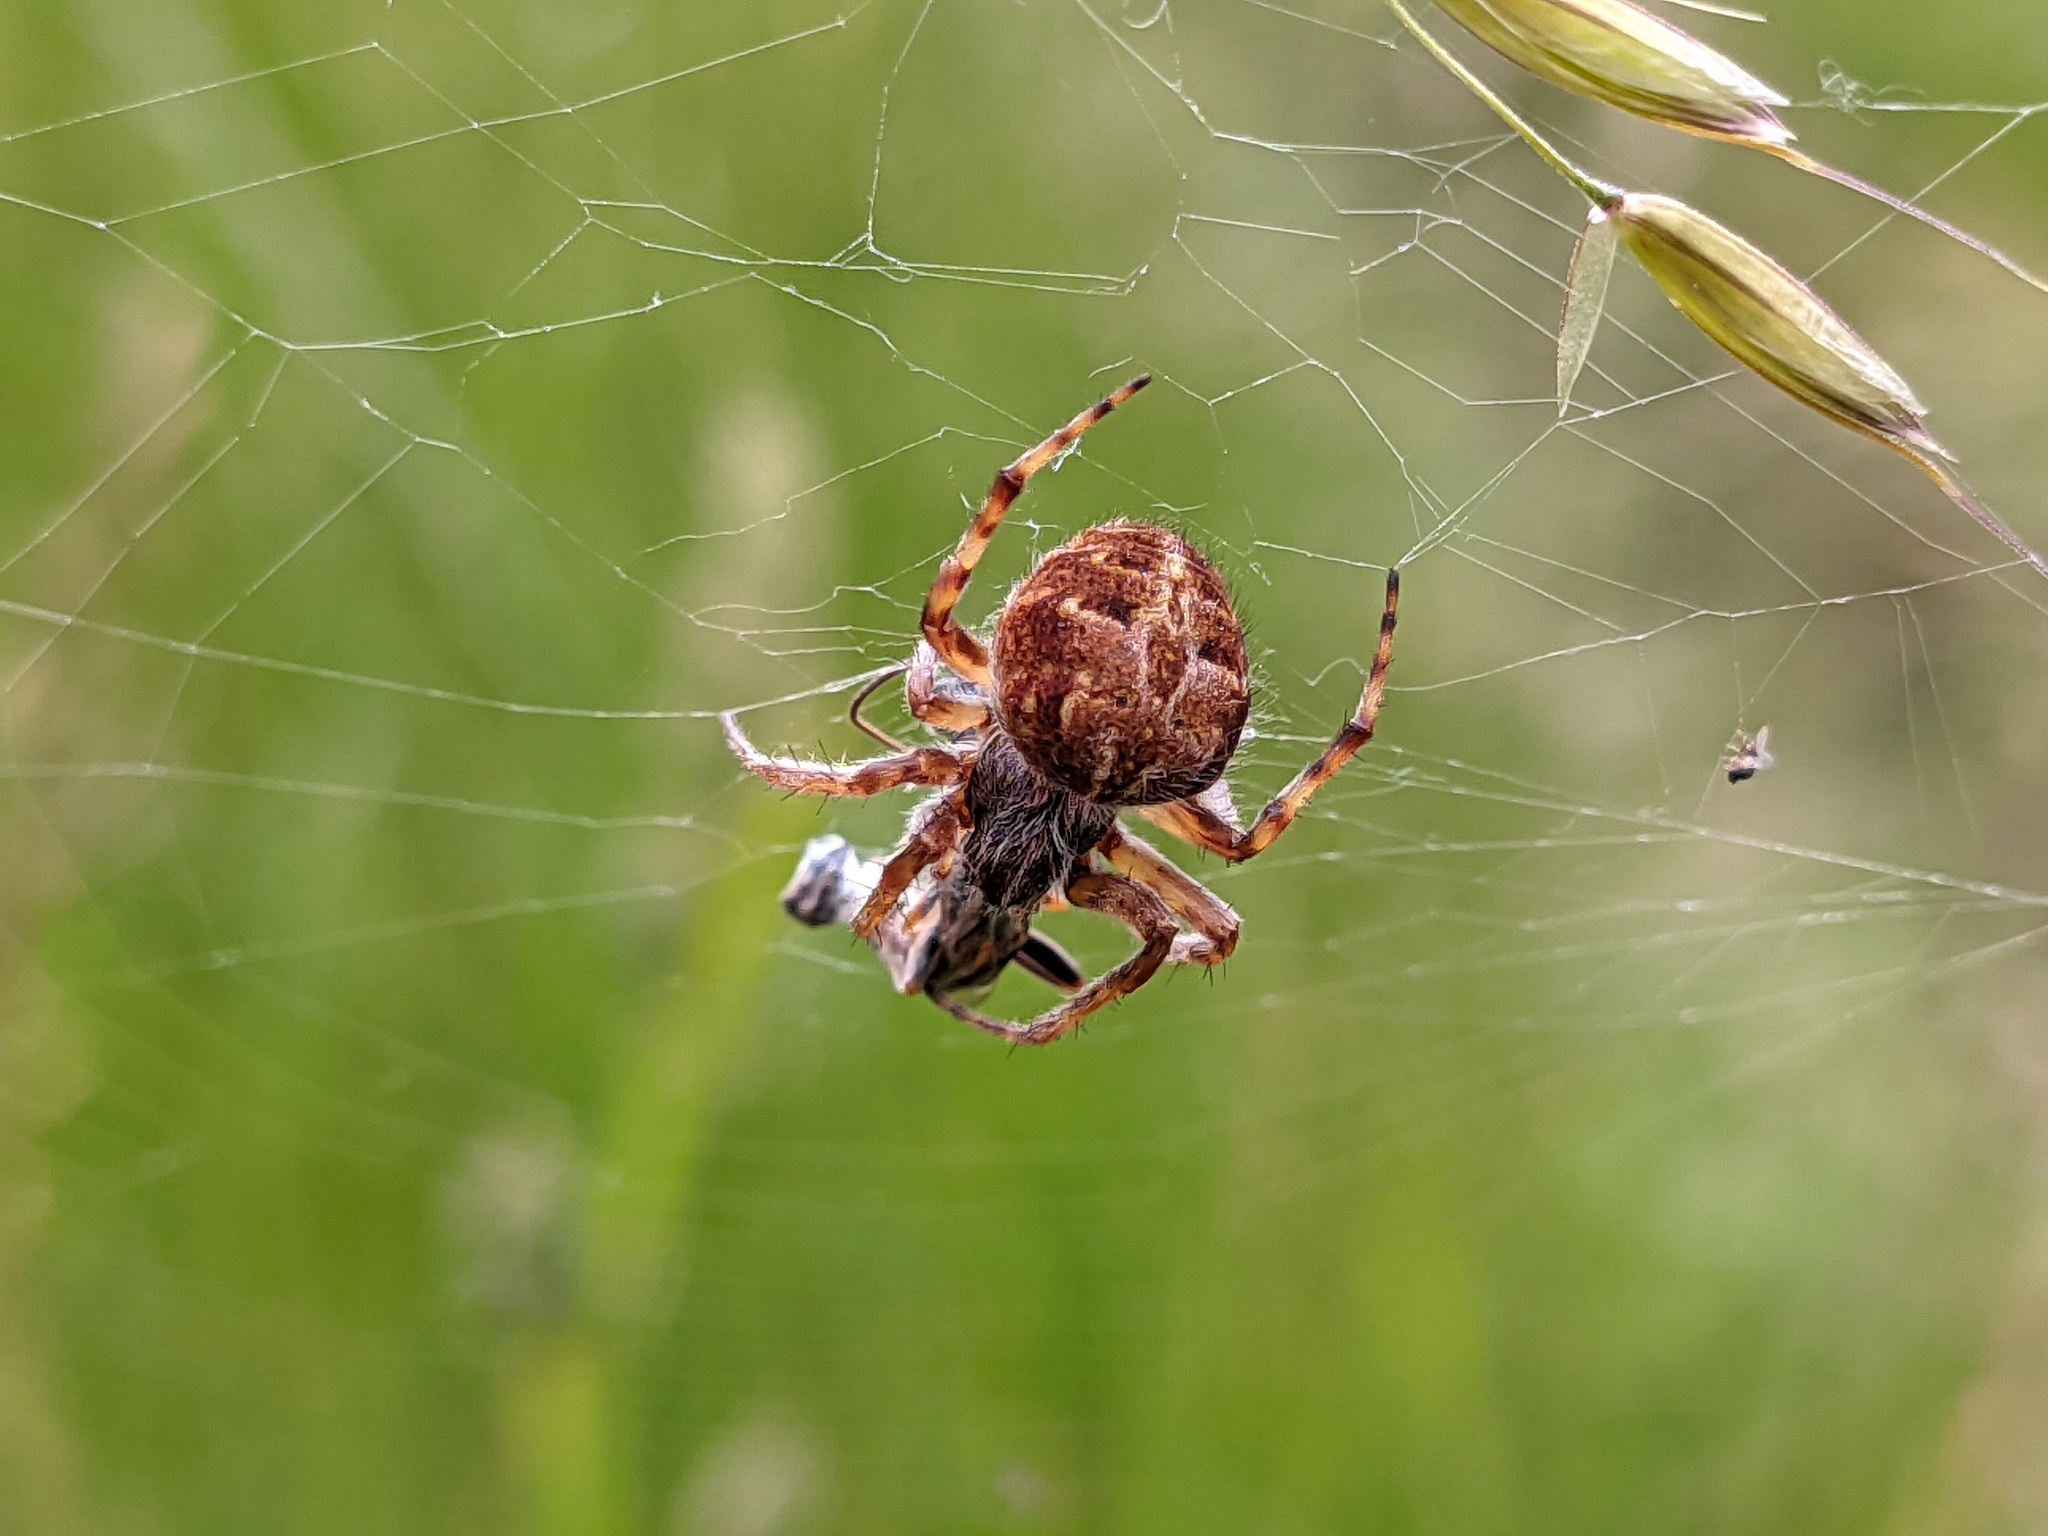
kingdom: Animalia
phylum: Arthropoda
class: Arachnida
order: Araneae
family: Araneidae
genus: Agalenatea
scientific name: Agalenatea redii
